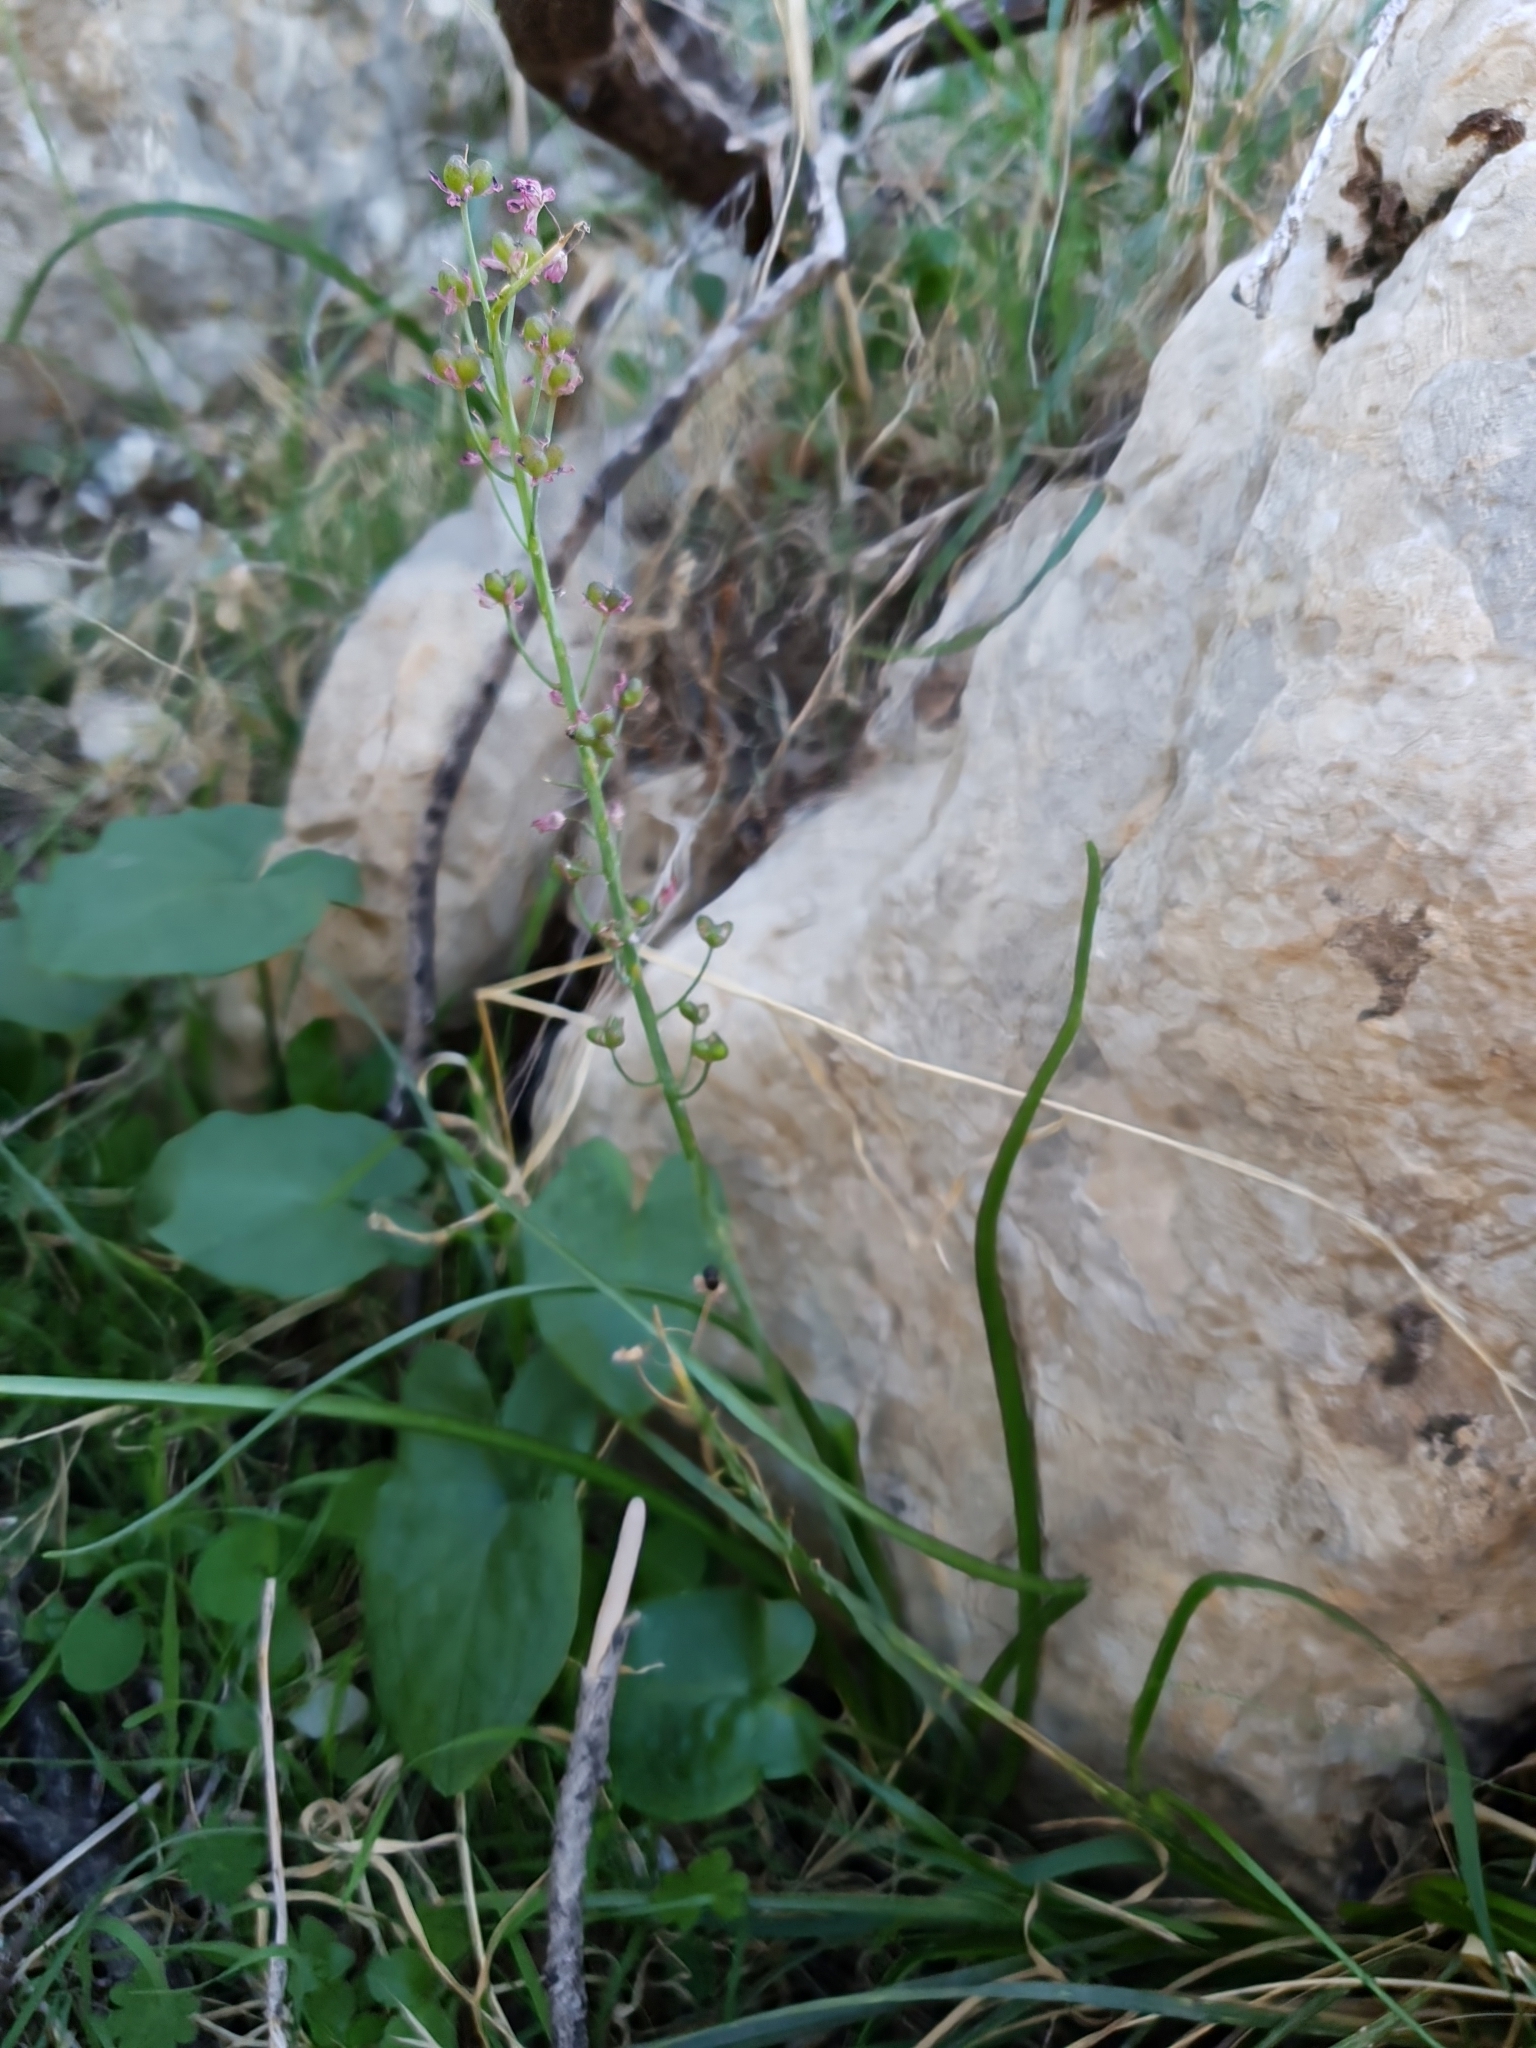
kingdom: Plantae
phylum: Tracheophyta
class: Liliopsida
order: Asparagales
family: Asparagaceae
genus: Barnardia
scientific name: Barnardia numidica
